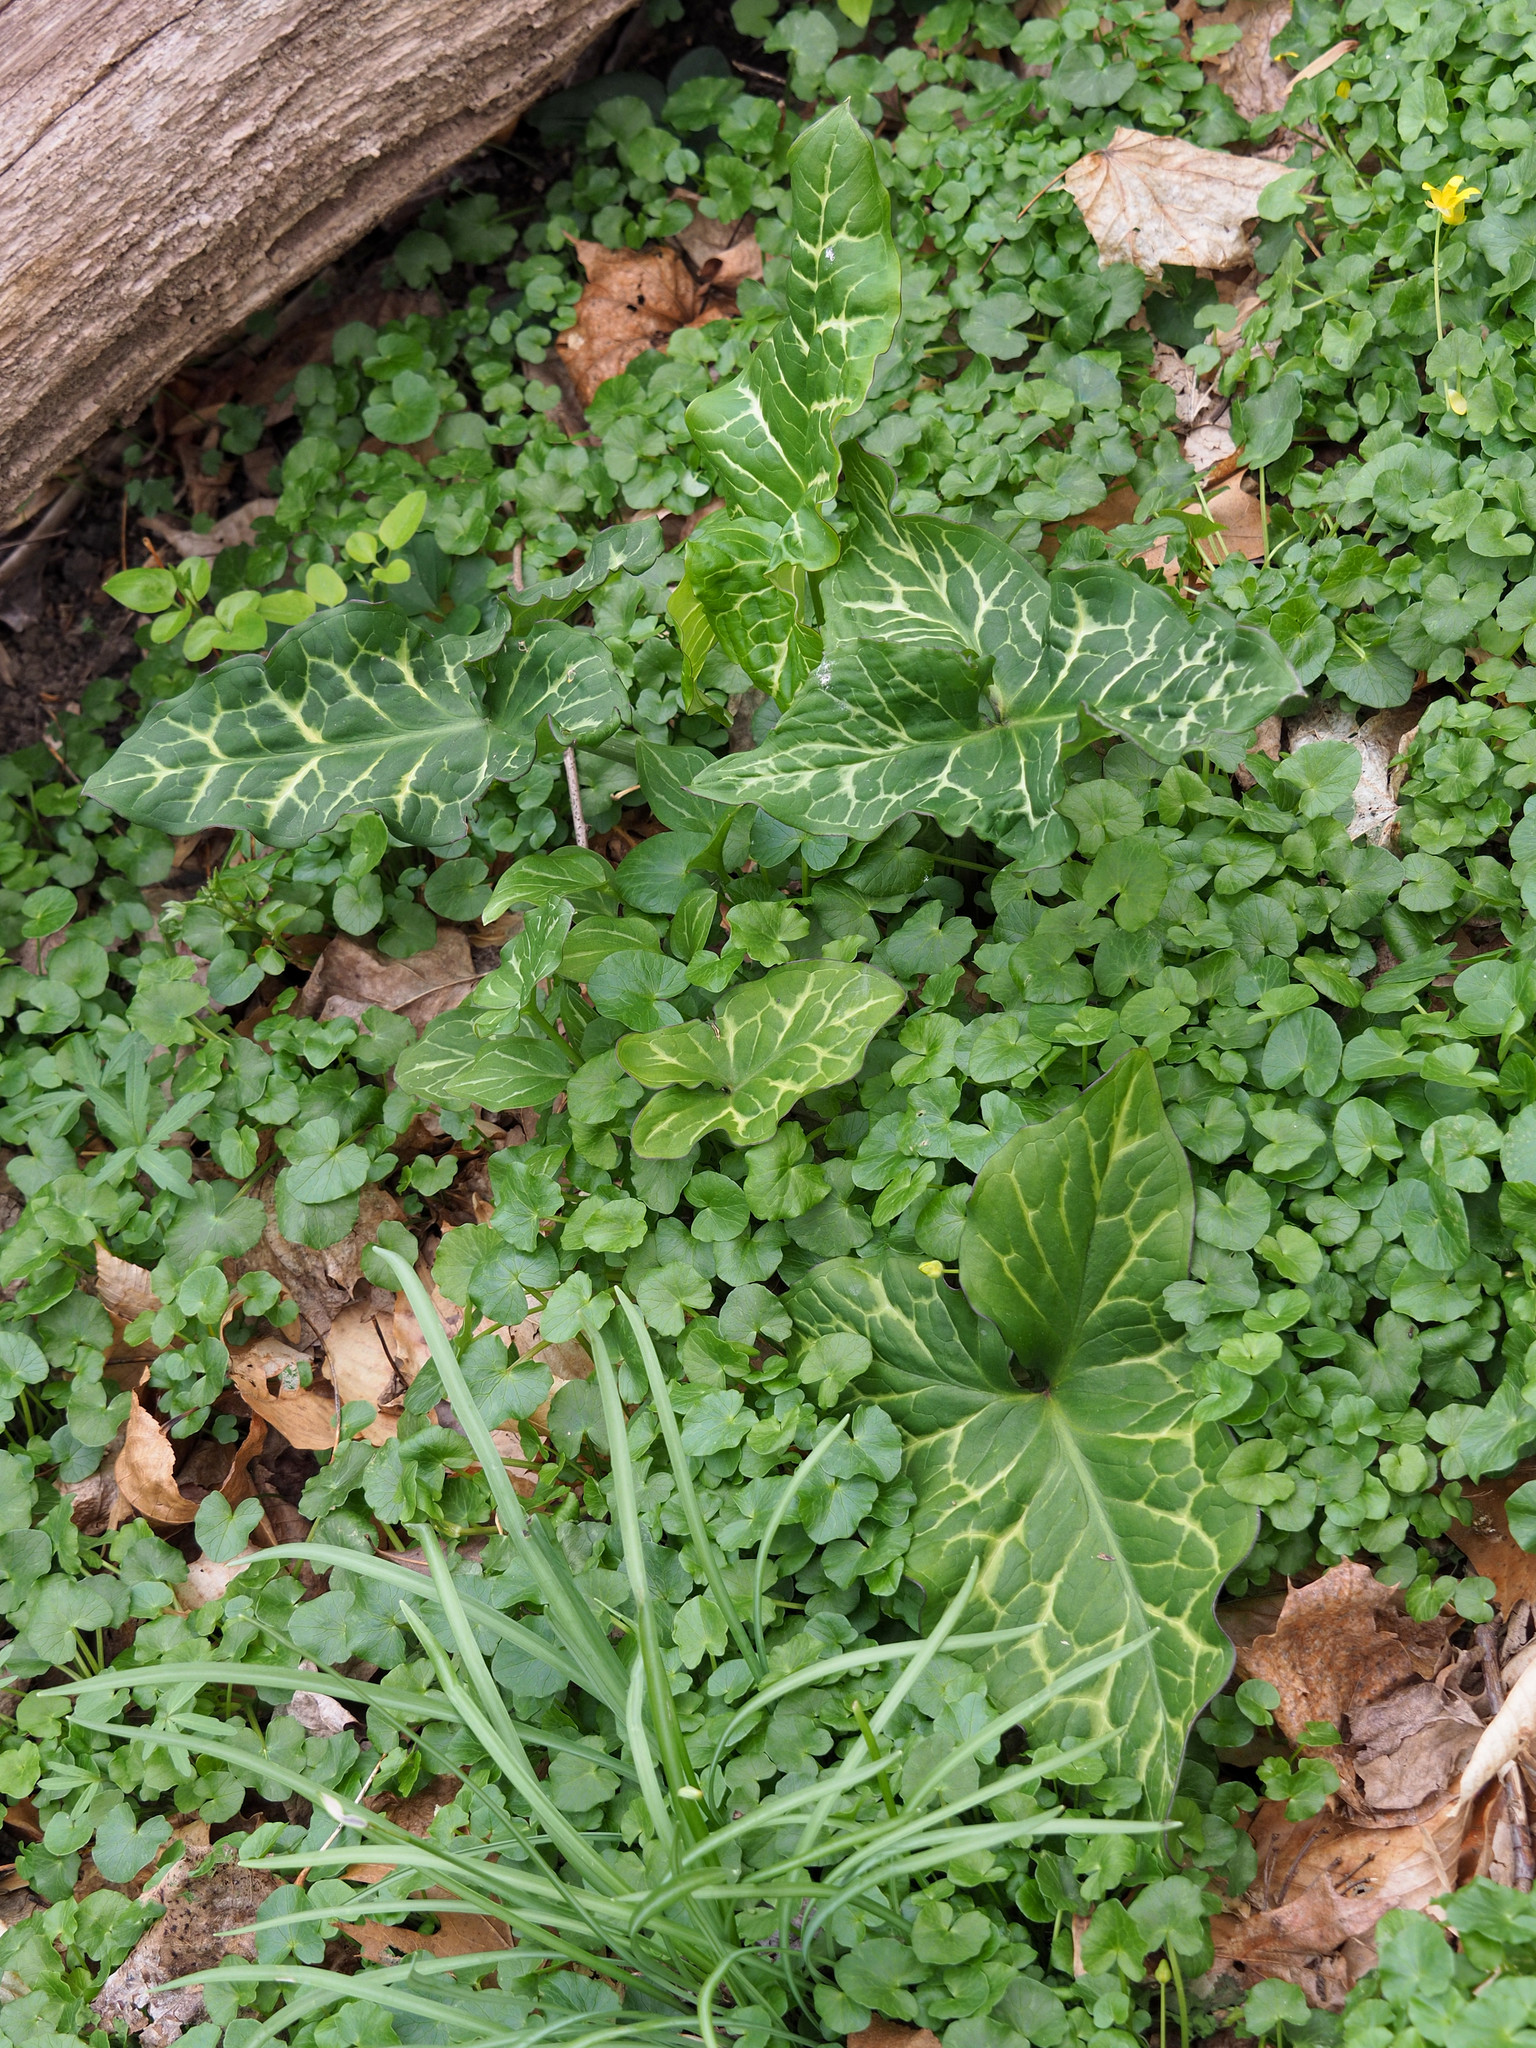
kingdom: Plantae
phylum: Tracheophyta
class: Liliopsida
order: Alismatales
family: Araceae
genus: Arum
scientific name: Arum italicum
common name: Italian lords-and-ladies
